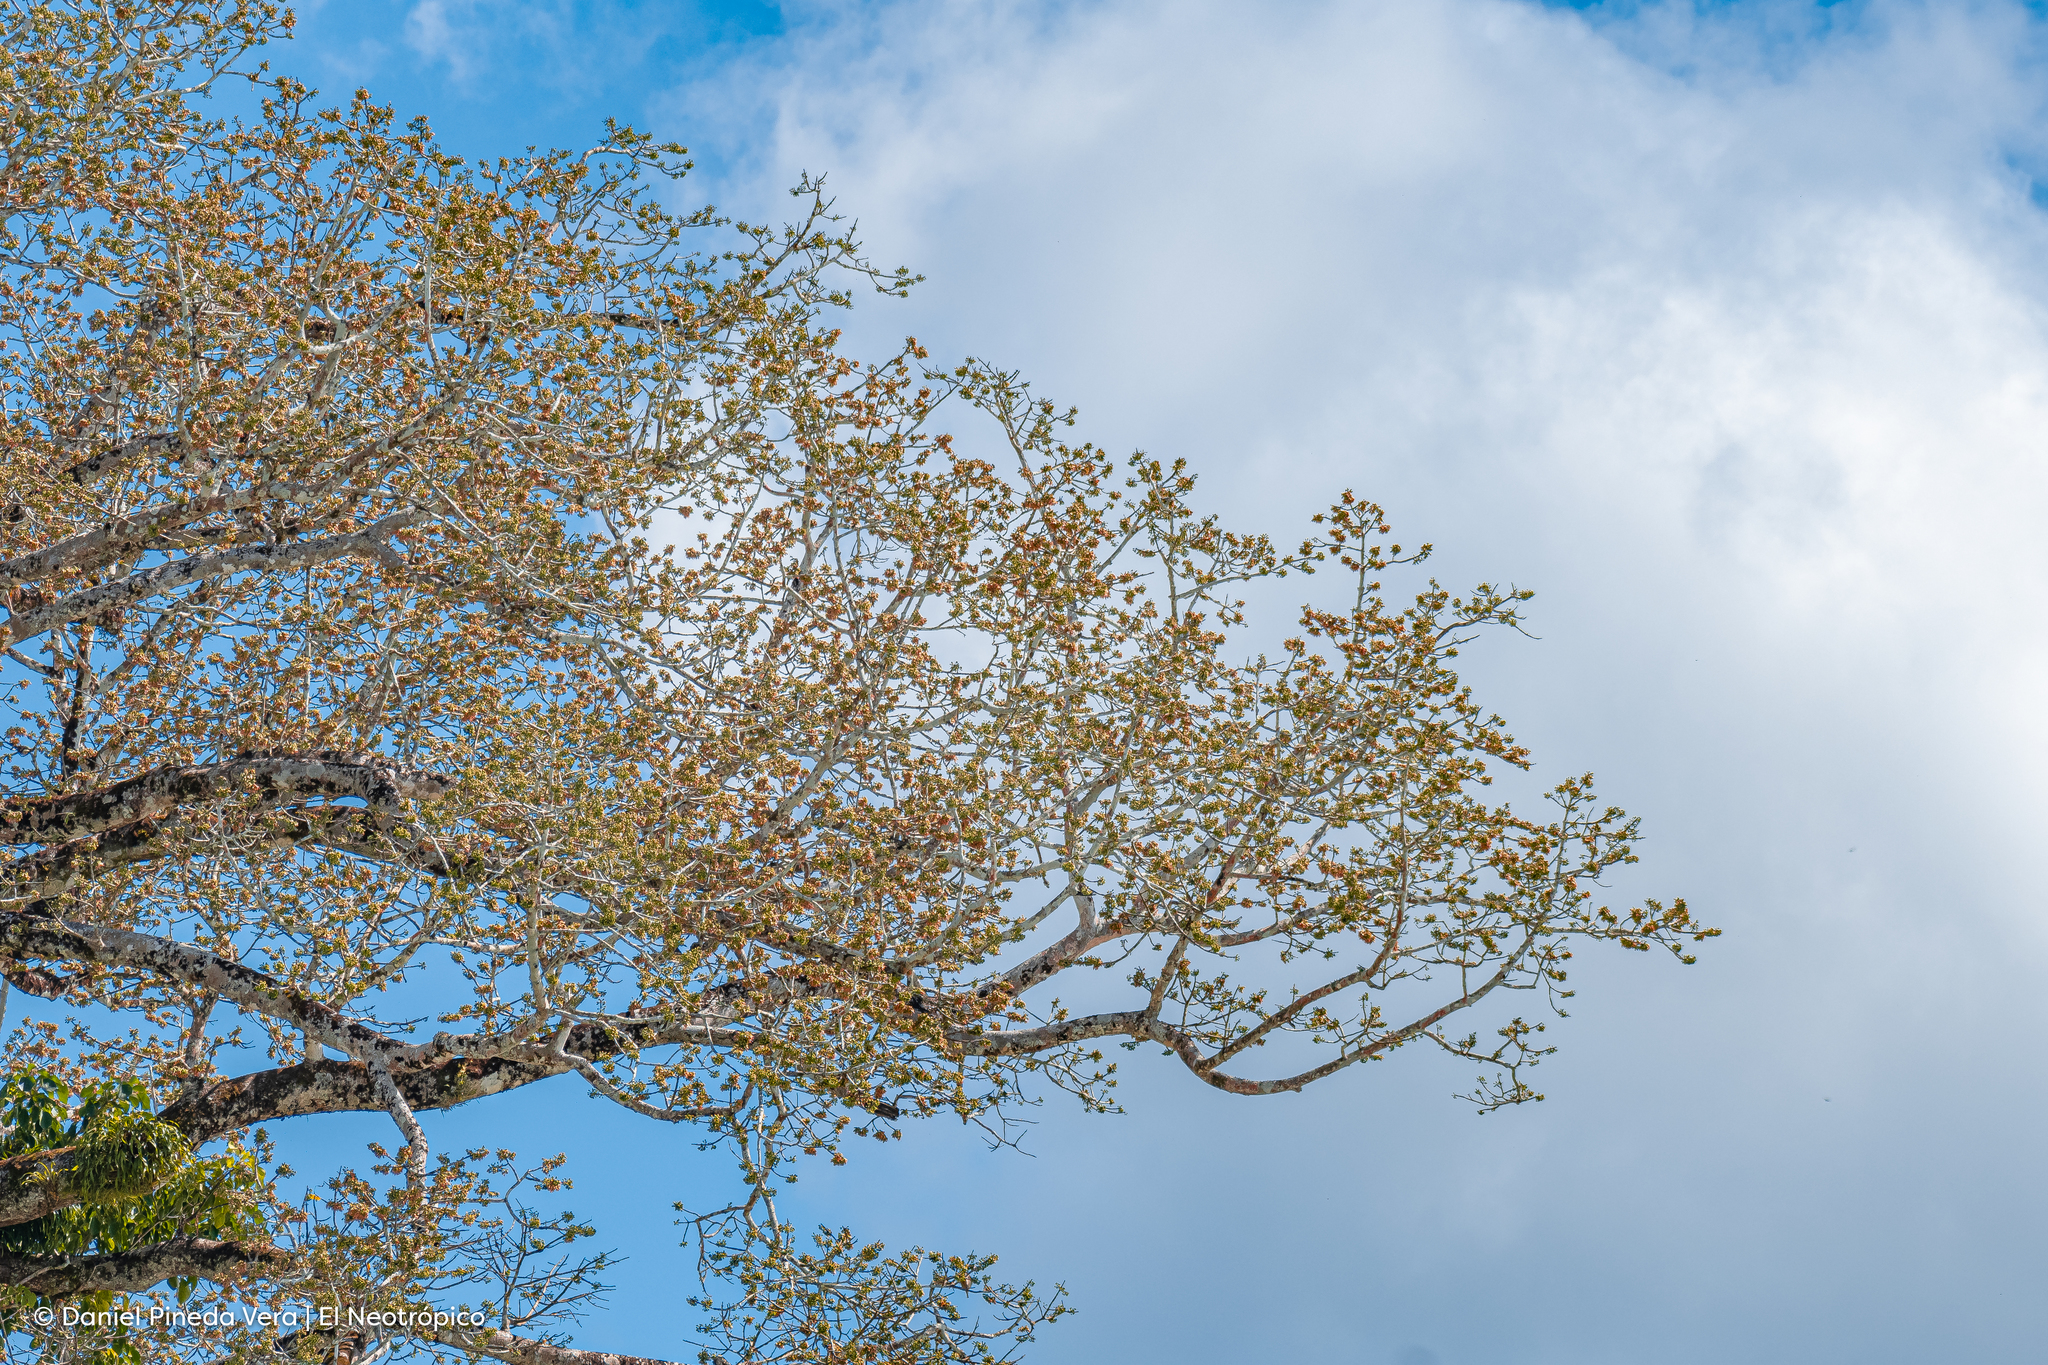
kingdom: Plantae
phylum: Tracheophyta
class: Magnoliopsida
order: Malvales
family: Malvaceae
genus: Ceiba
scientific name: Ceiba pentandra
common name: Kapok
